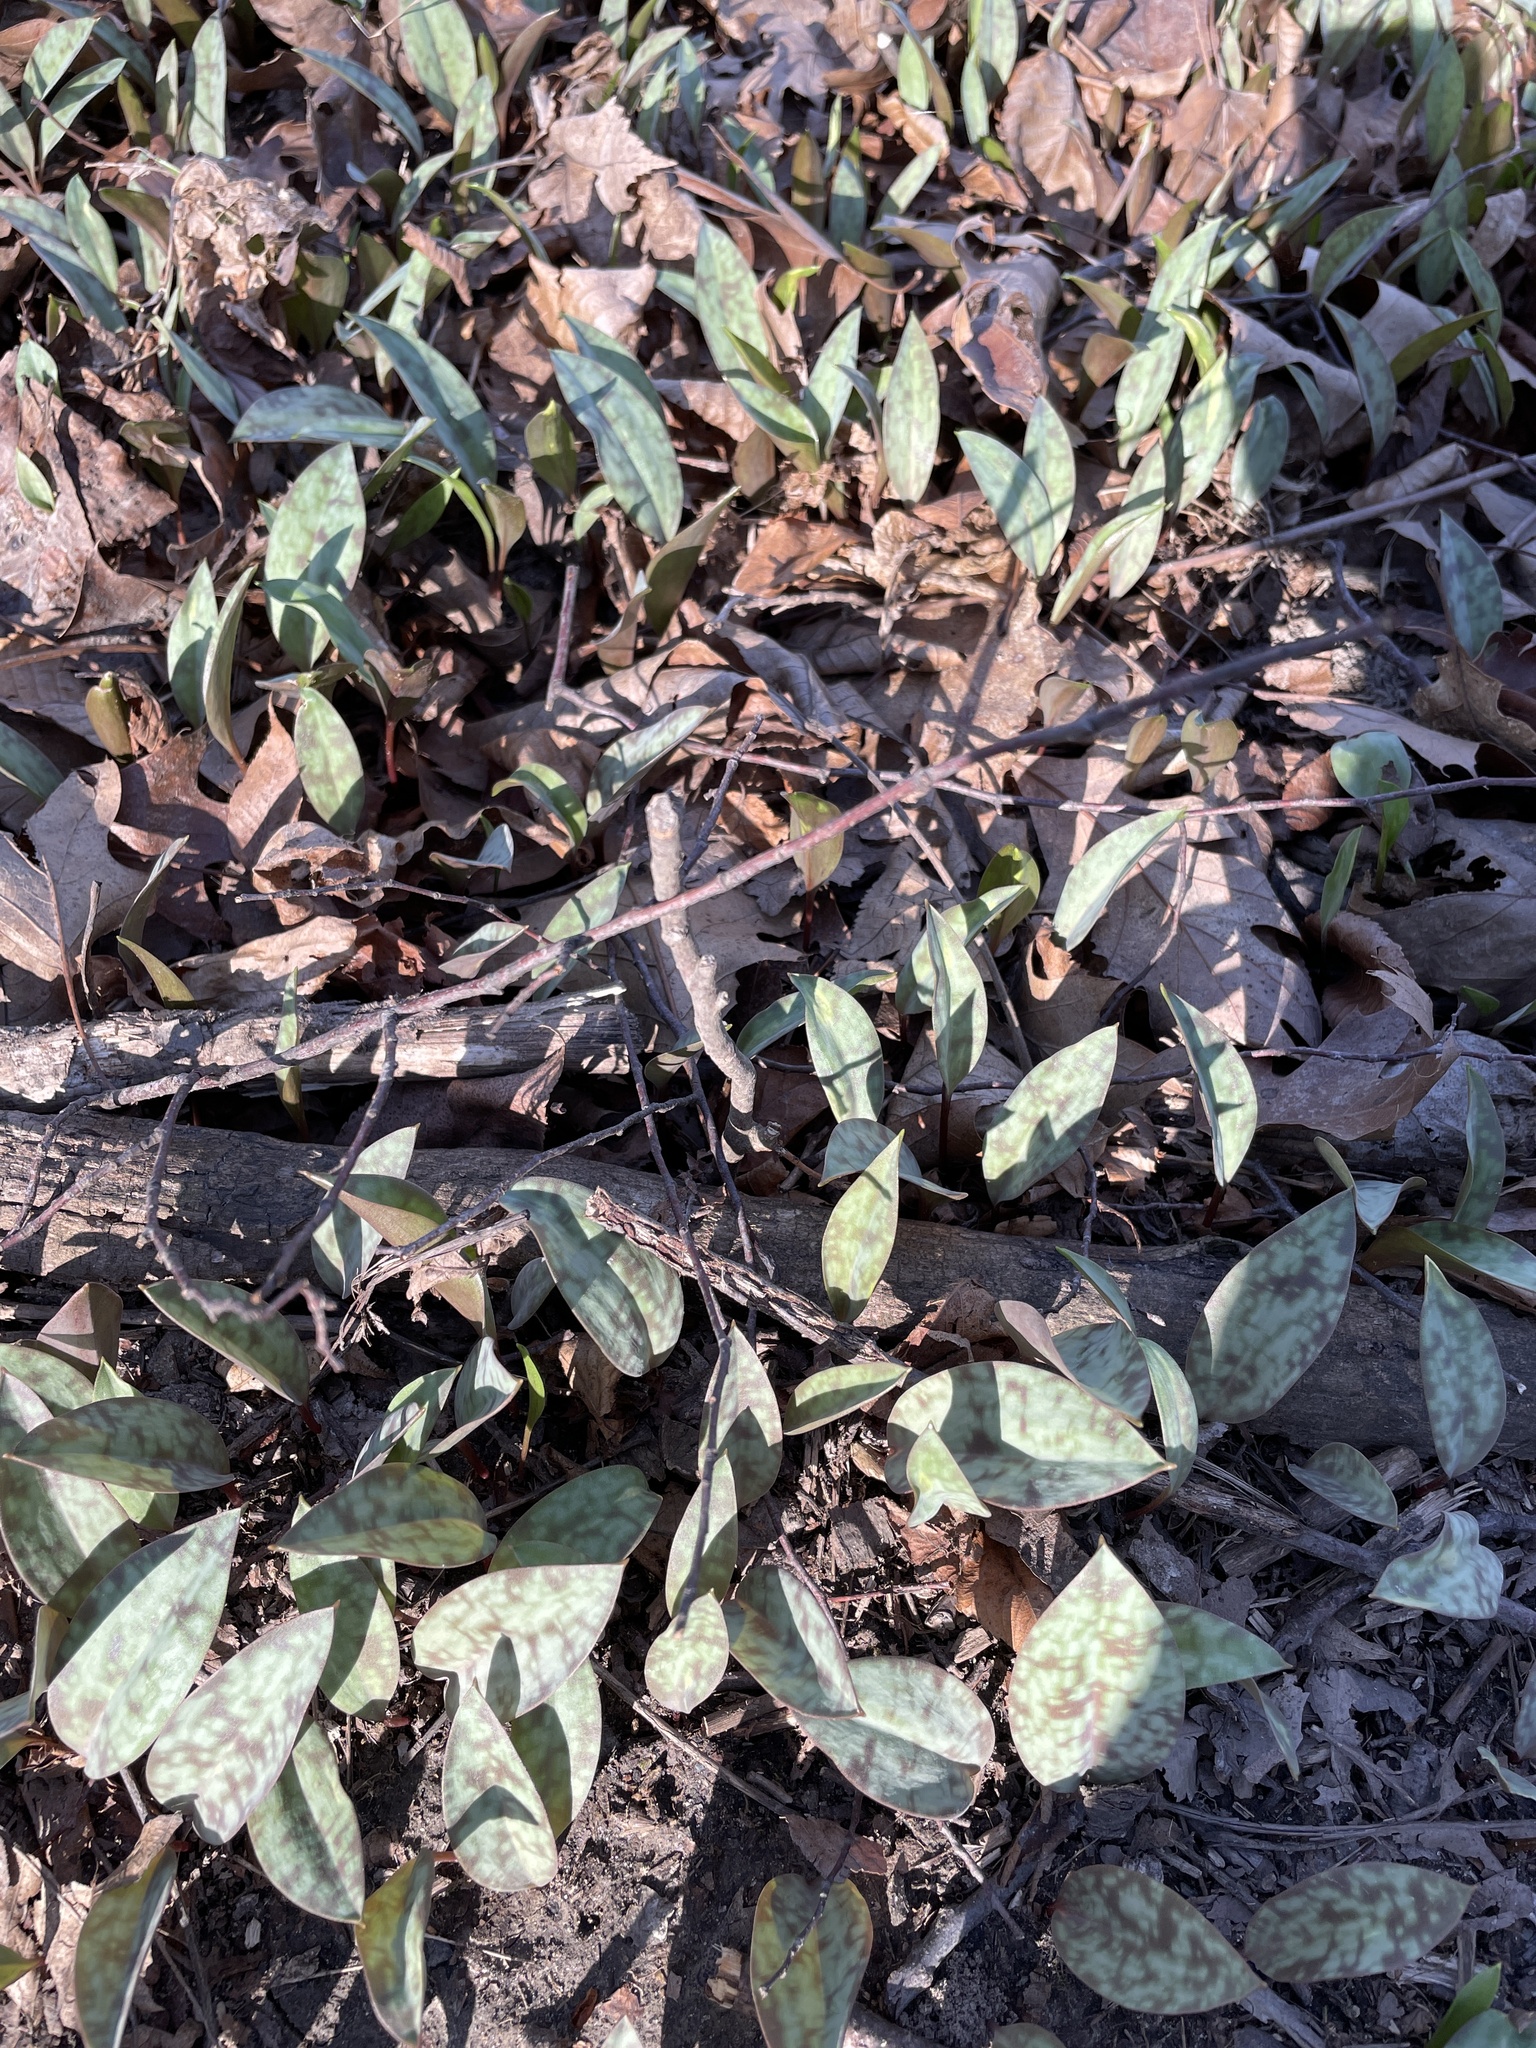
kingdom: Plantae
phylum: Tracheophyta
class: Liliopsida
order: Liliales
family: Liliaceae
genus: Erythronium
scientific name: Erythronium americanum
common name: Yellow adder's-tongue
